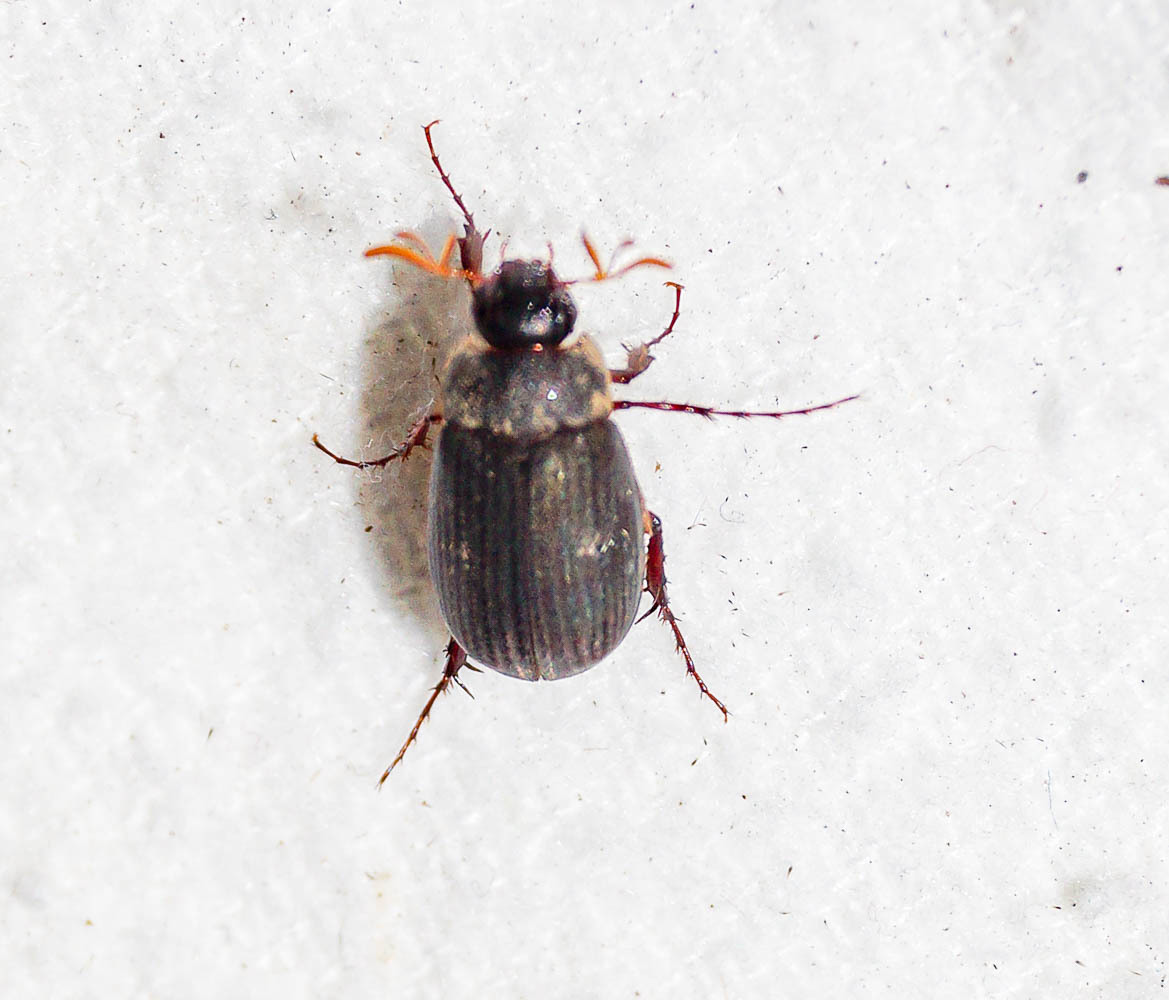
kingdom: Animalia
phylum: Arthropoda
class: Insecta
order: Coleoptera
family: Scarabaeidae
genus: Maladera
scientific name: Maladera holosericea
